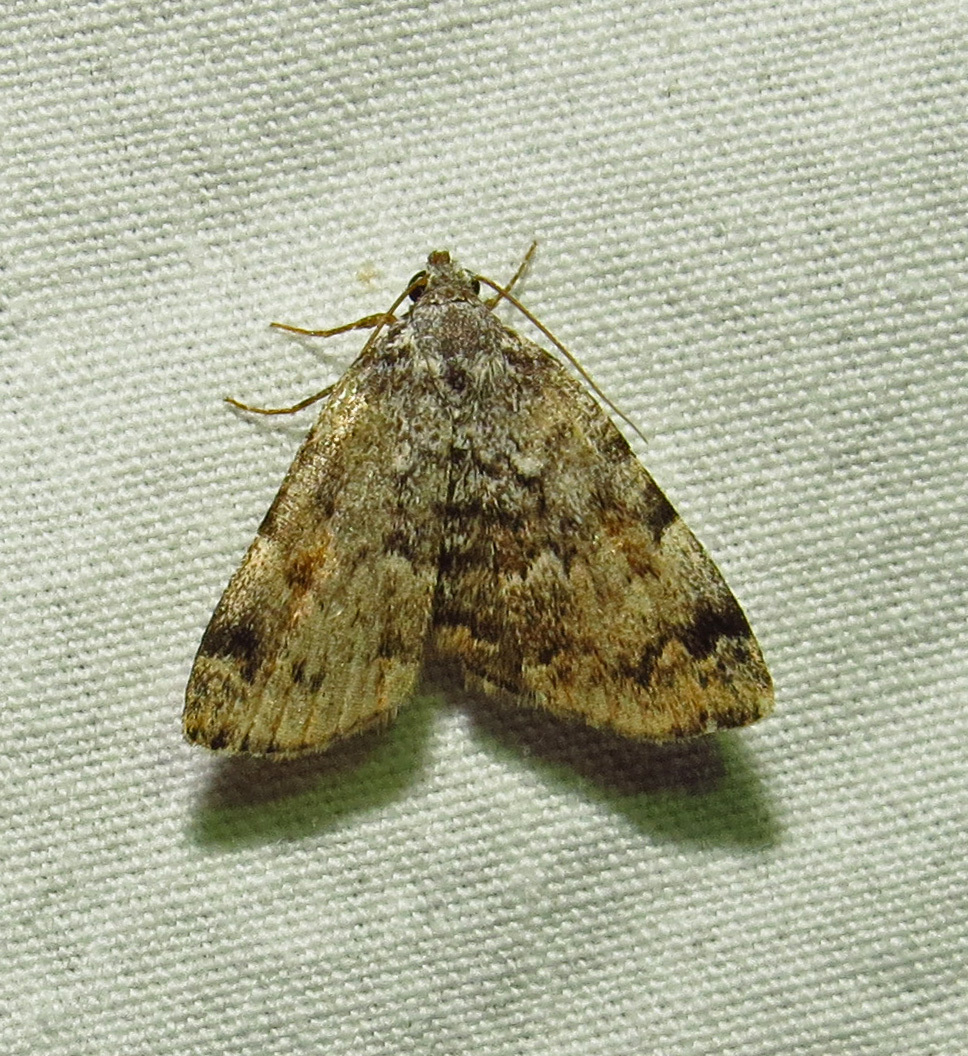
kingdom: Animalia
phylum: Arthropoda
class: Insecta
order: Lepidoptera
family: Erebidae
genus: Idia
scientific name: Idia americalis
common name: American idia moth
